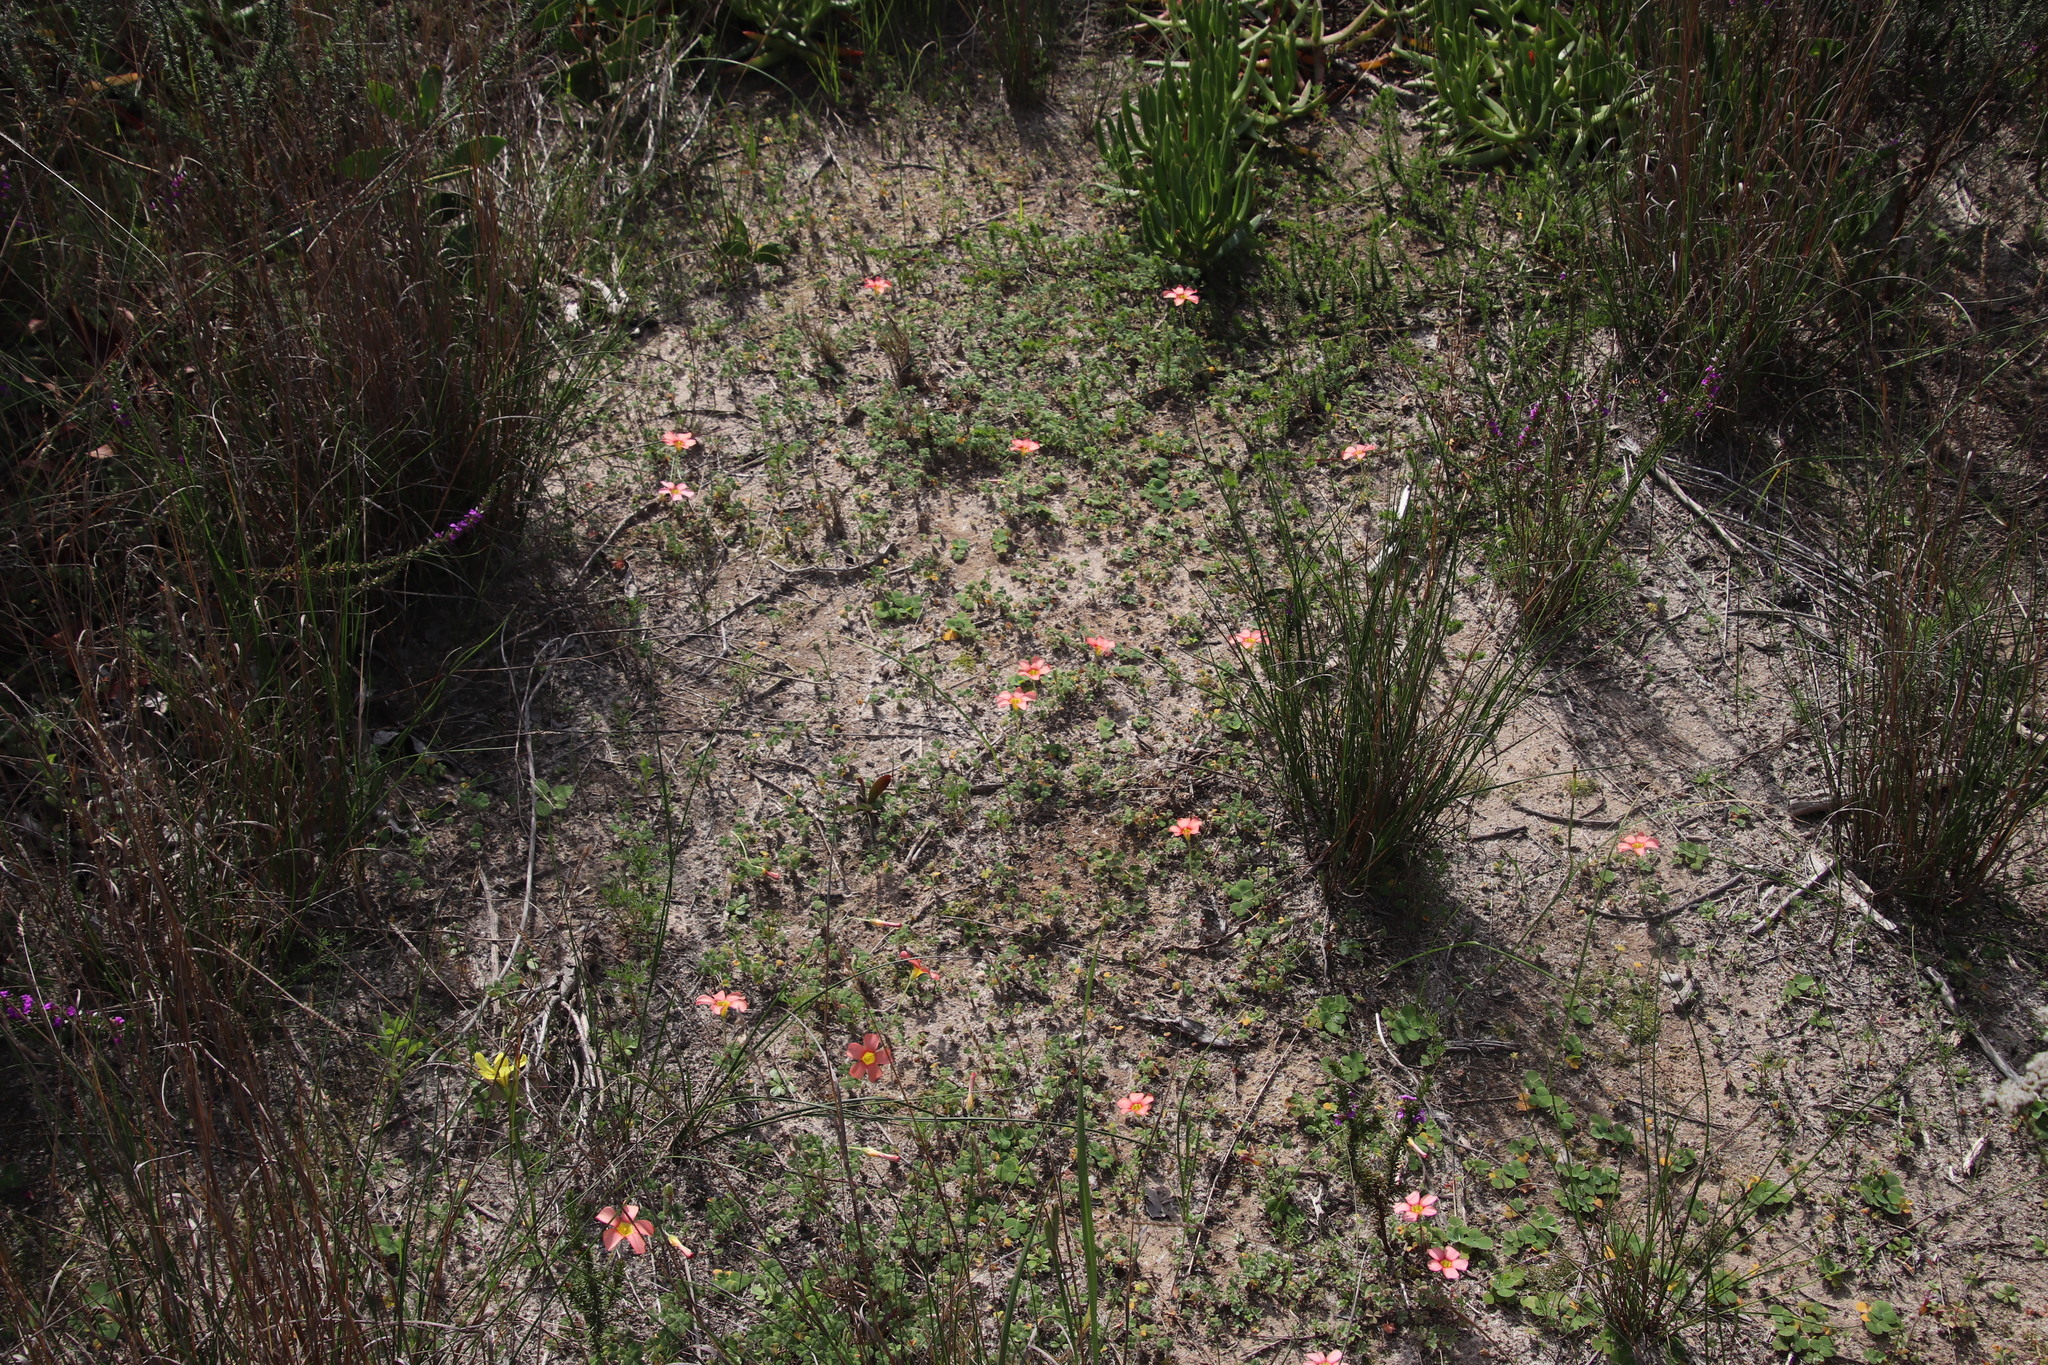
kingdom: Plantae
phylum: Tracheophyta
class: Magnoliopsida
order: Oxalidales
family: Oxalidaceae
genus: Oxalis
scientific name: Oxalis obtusa
